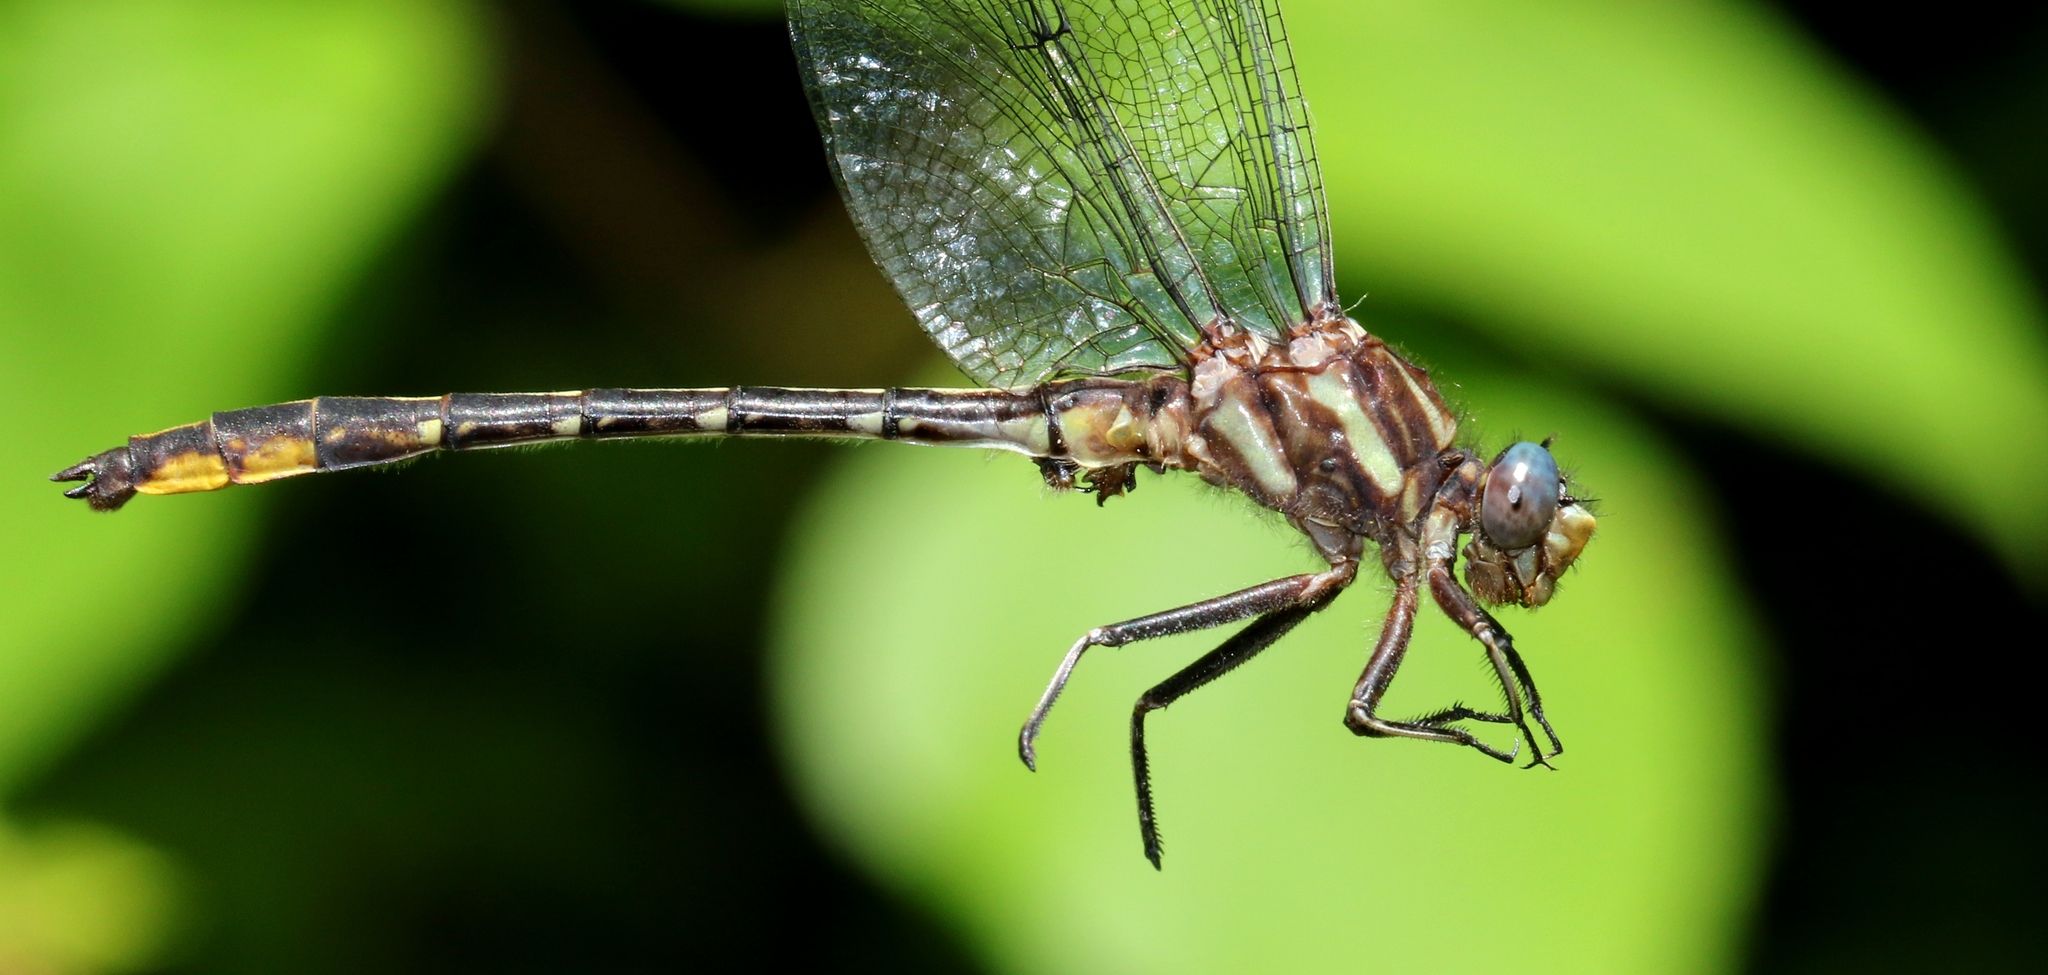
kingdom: Animalia
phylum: Arthropoda
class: Insecta
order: Odonata
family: Gomphidae
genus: Phanogomphus
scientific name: Phanogomphus exilis
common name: Lancet clubtail
